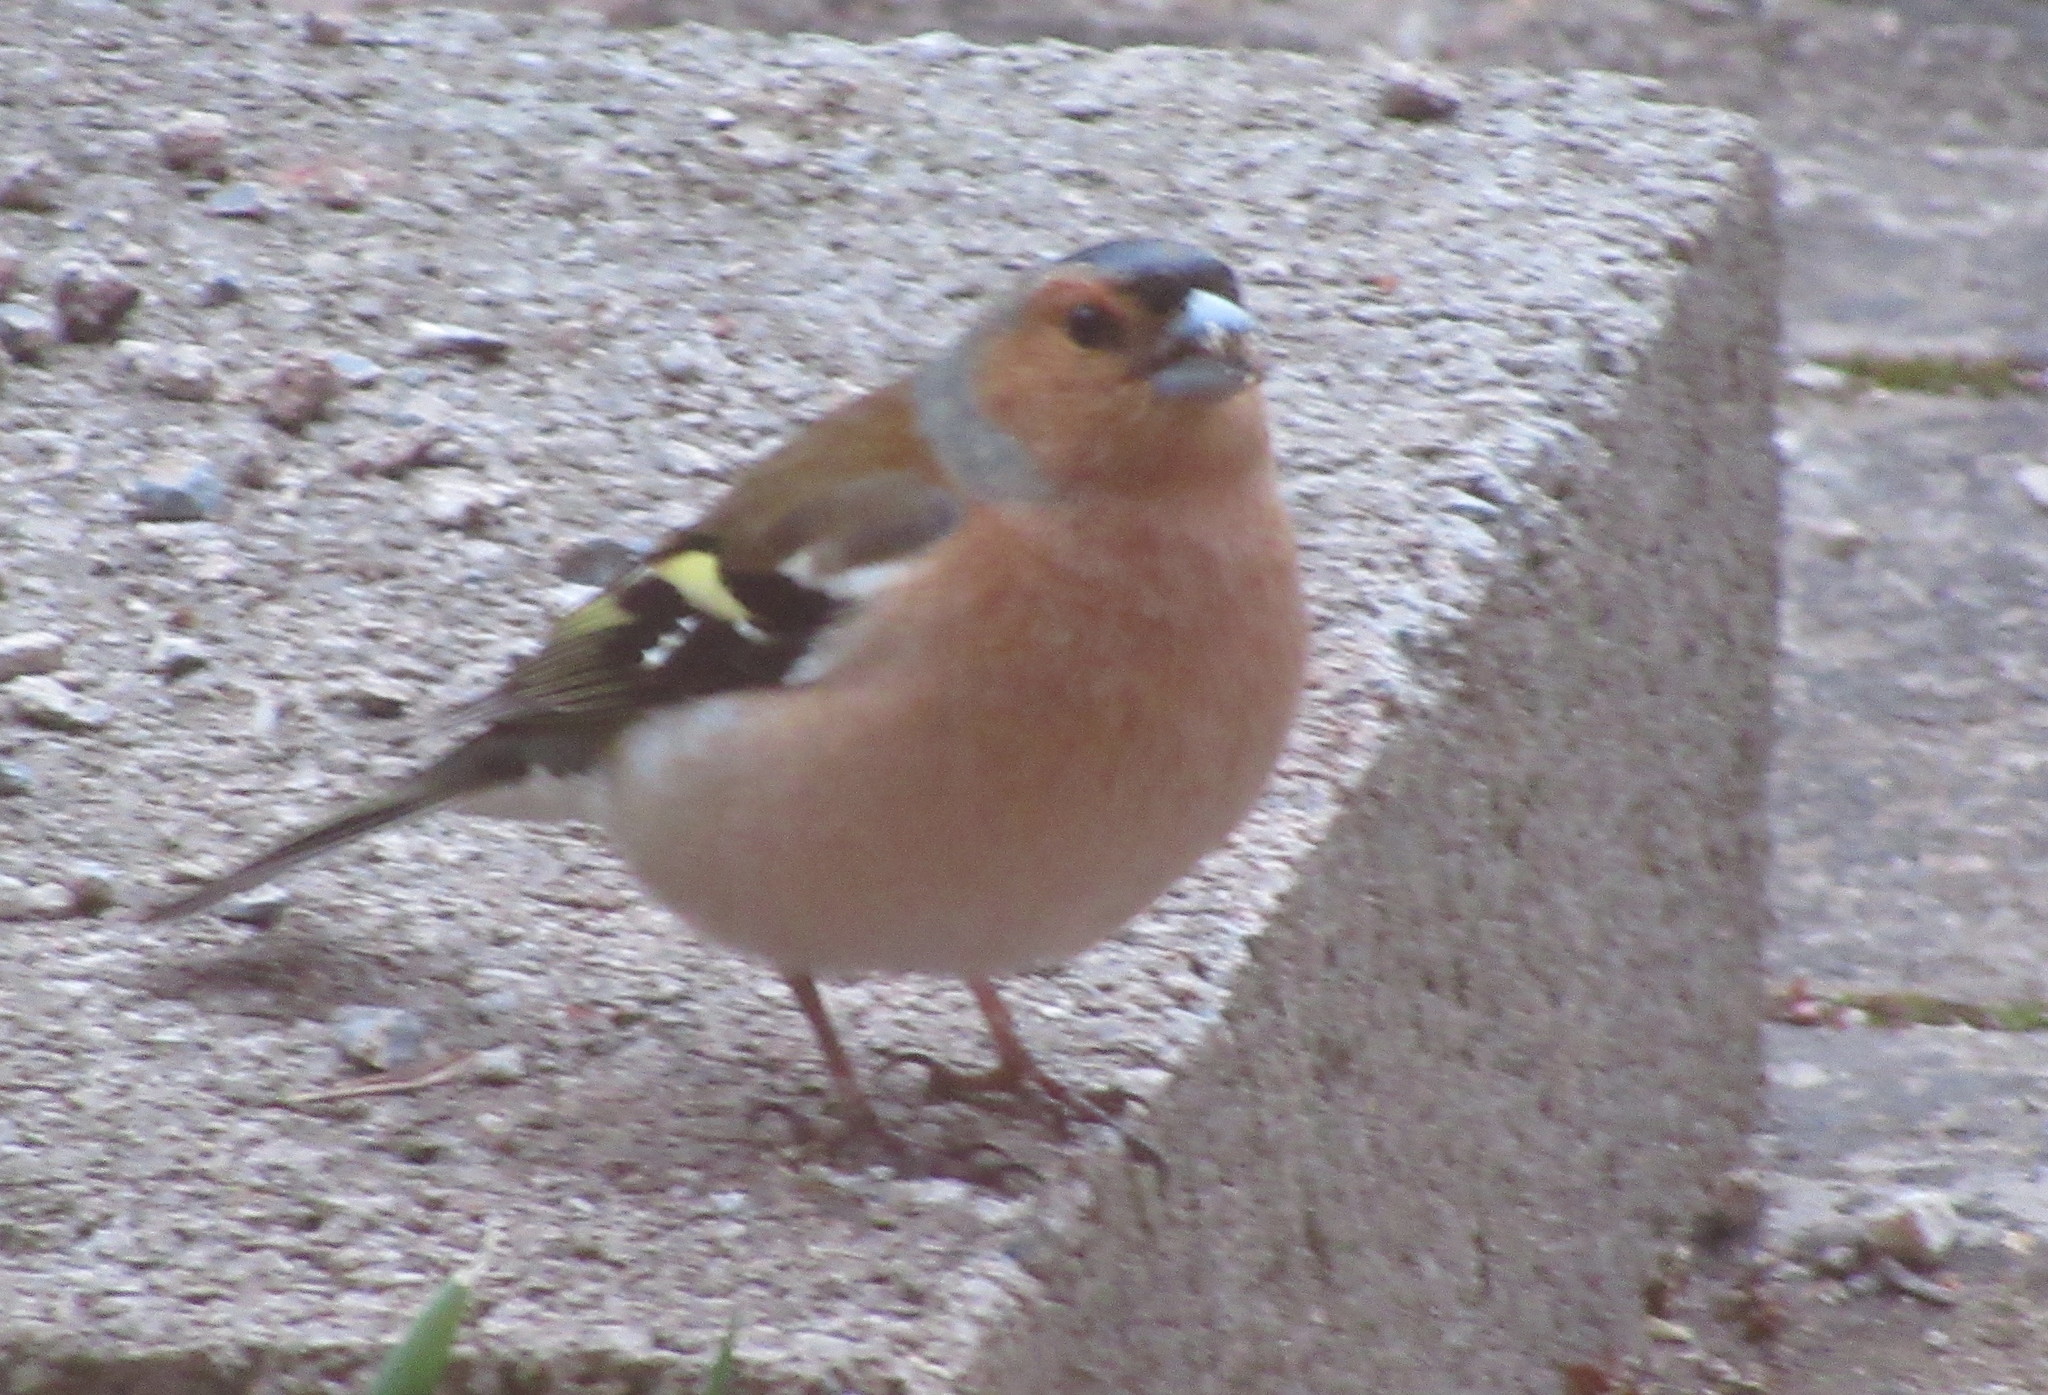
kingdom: Animalia
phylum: Chordata
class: Aves
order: Passeriformes
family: Fringillidae
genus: Fringilla
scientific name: Fringilla coelebs
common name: Common chaffinch
